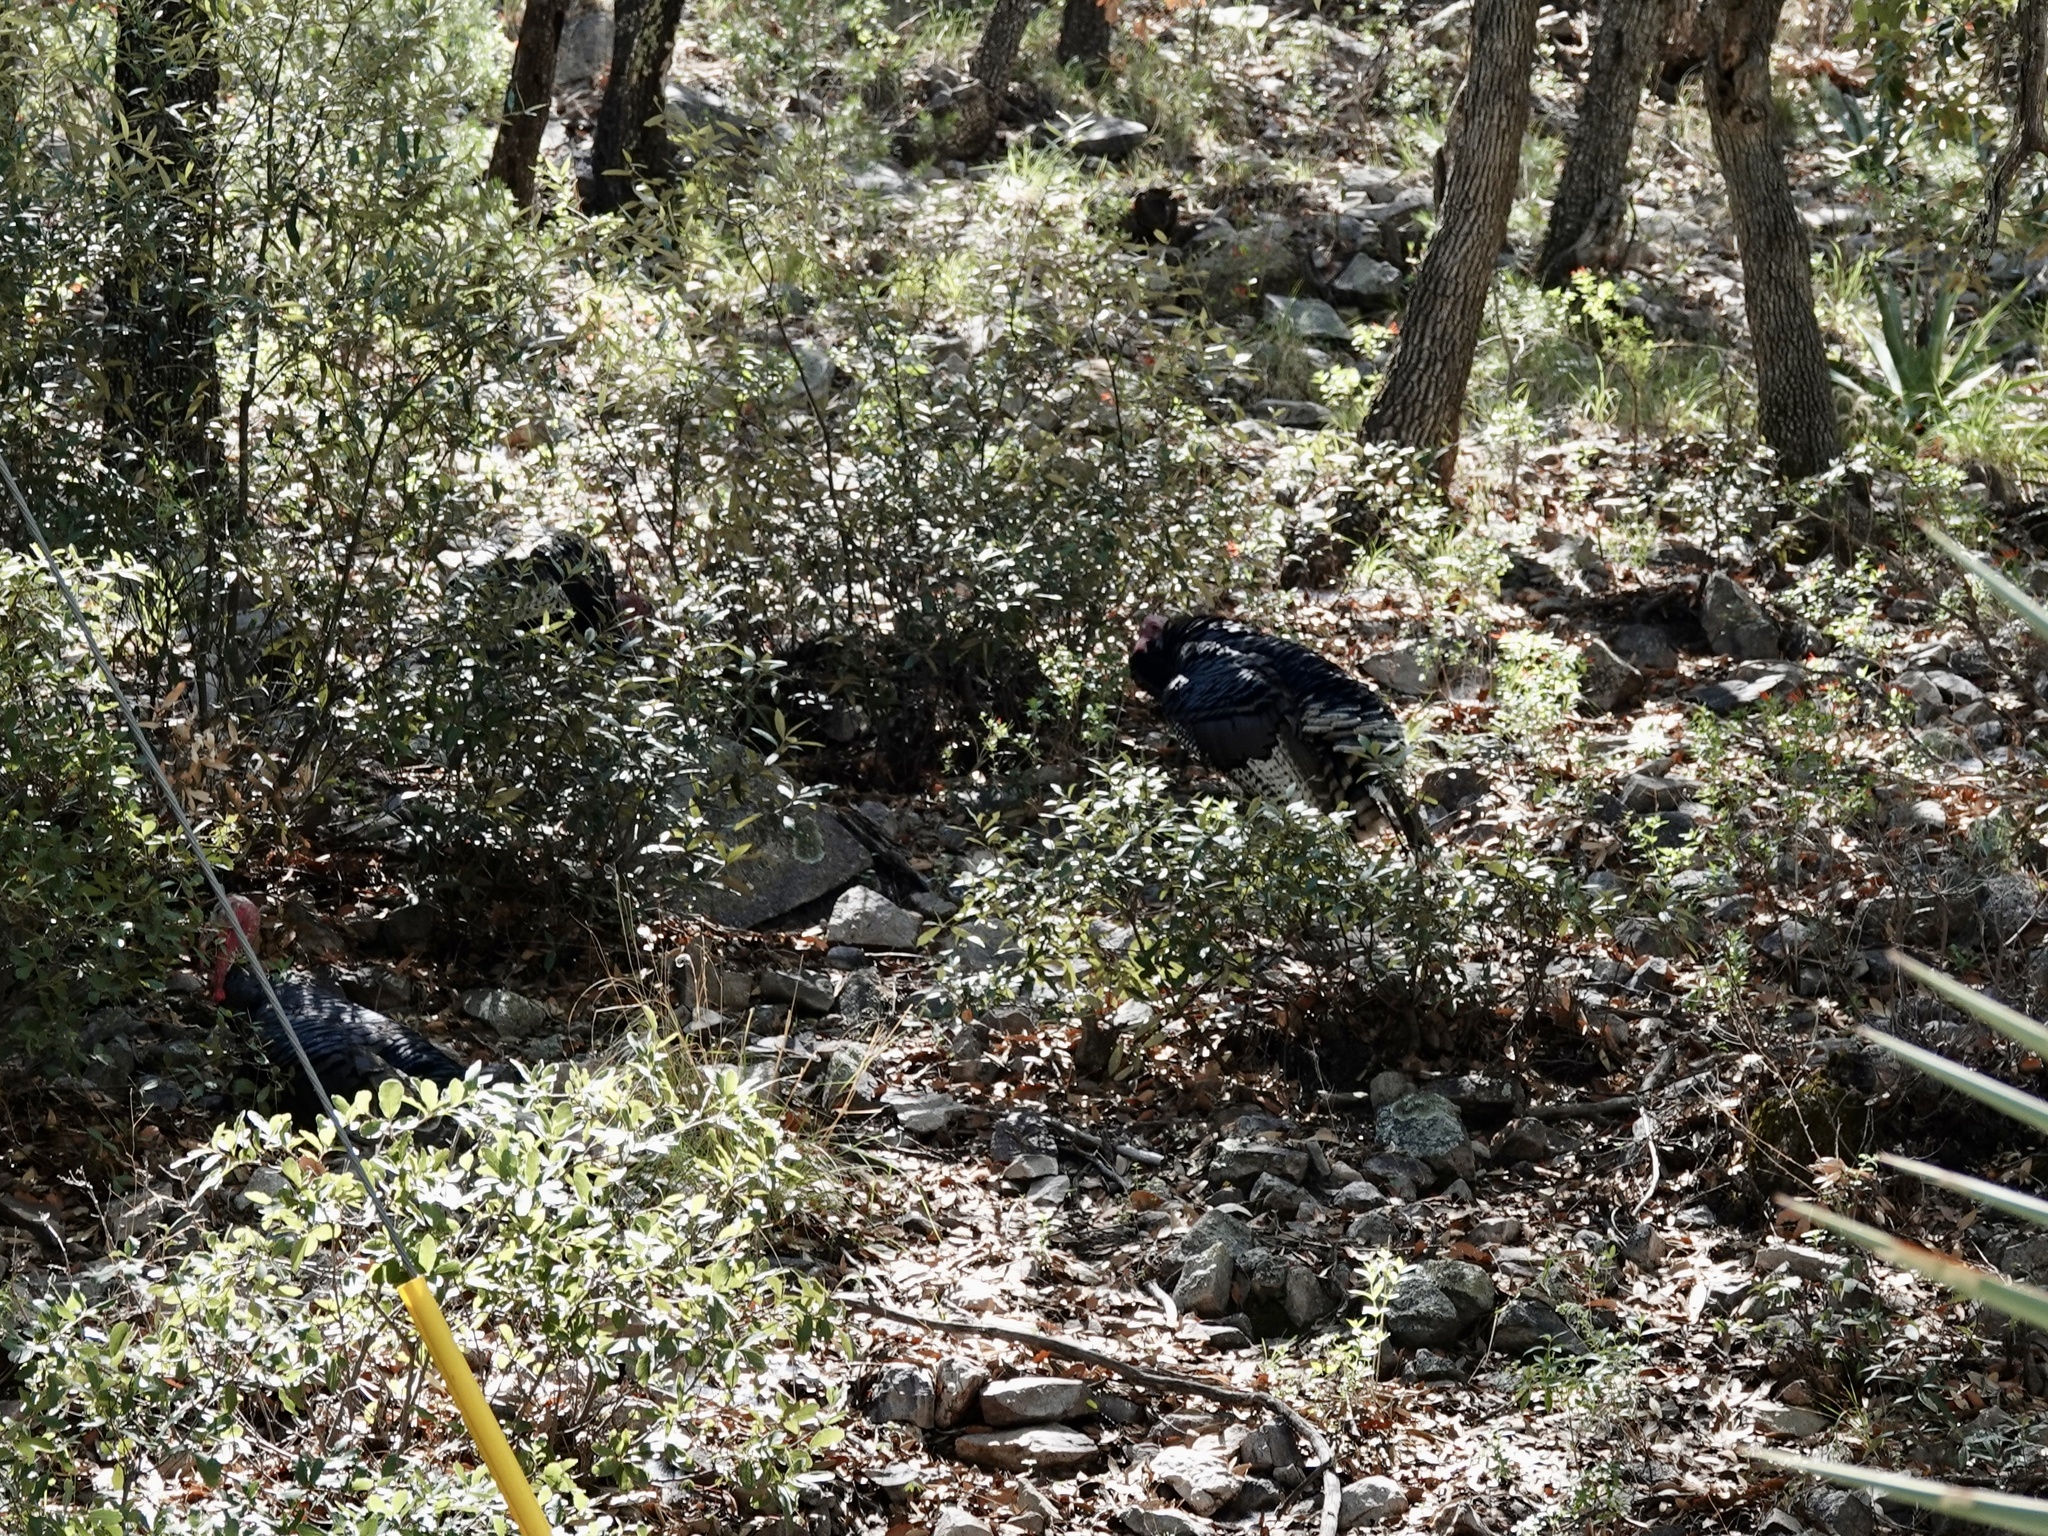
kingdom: Animalia
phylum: Chordata
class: Aves
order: Galliformes
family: Phasianidae
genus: Meleagris
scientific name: Meleagris gallopavo
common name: Wild turkey
